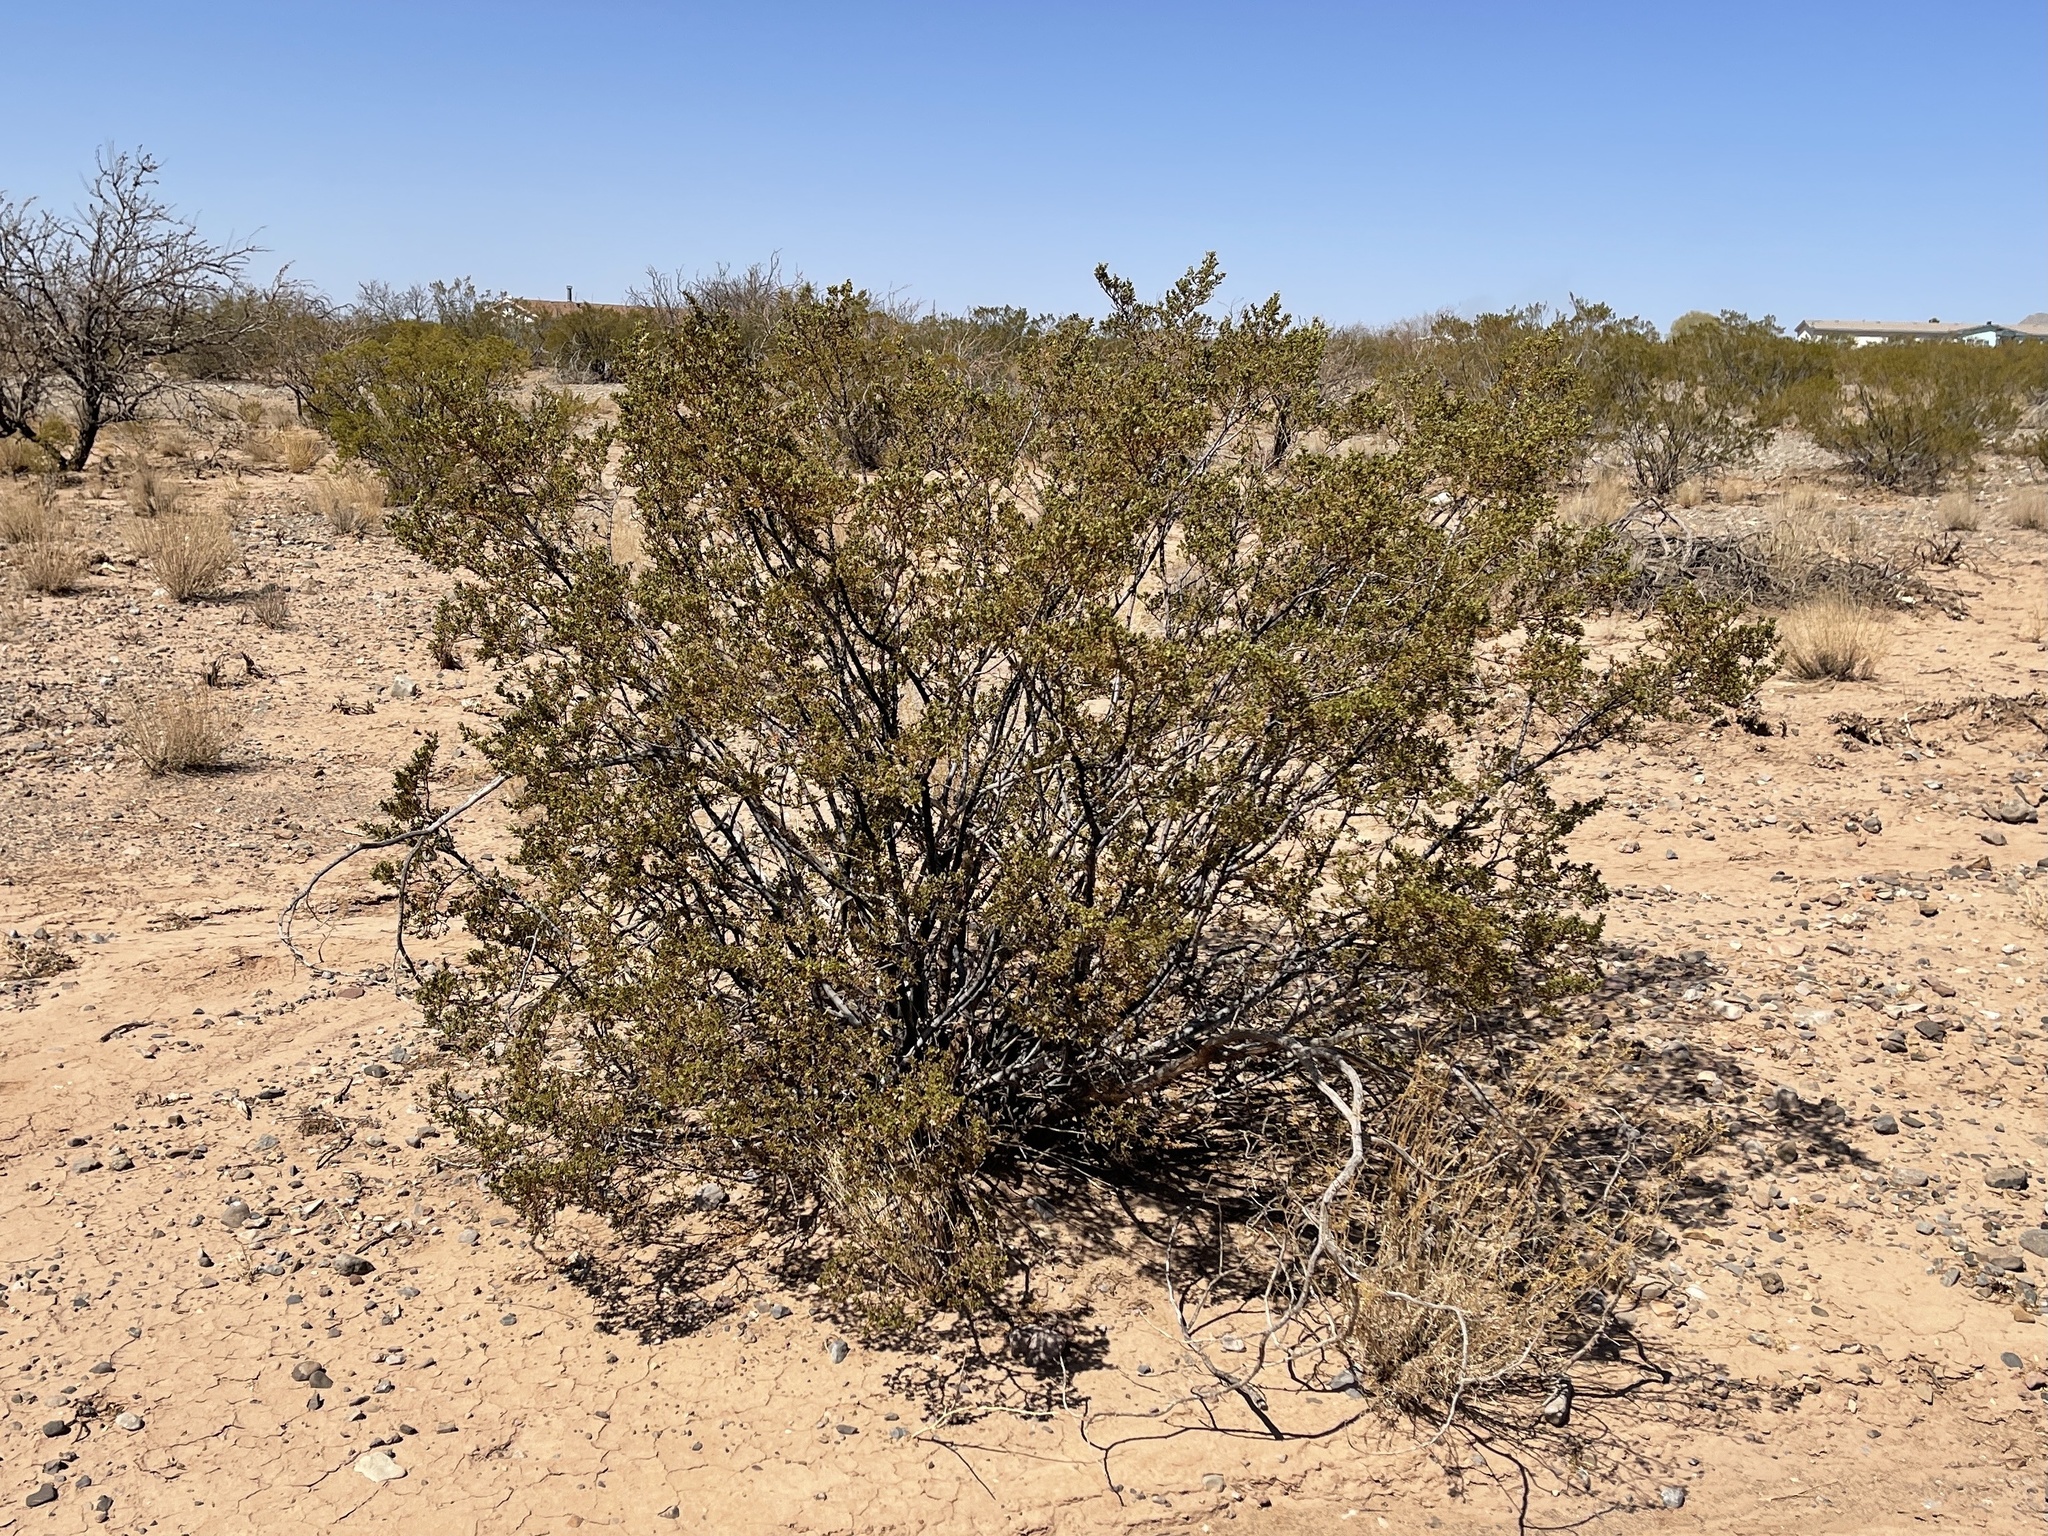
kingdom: Plantae
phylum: Tracheophyta
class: Magnoliopsida
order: Zygophyllales
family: Zygophyllaceae
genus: Larrea
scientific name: Larrea tridentata
